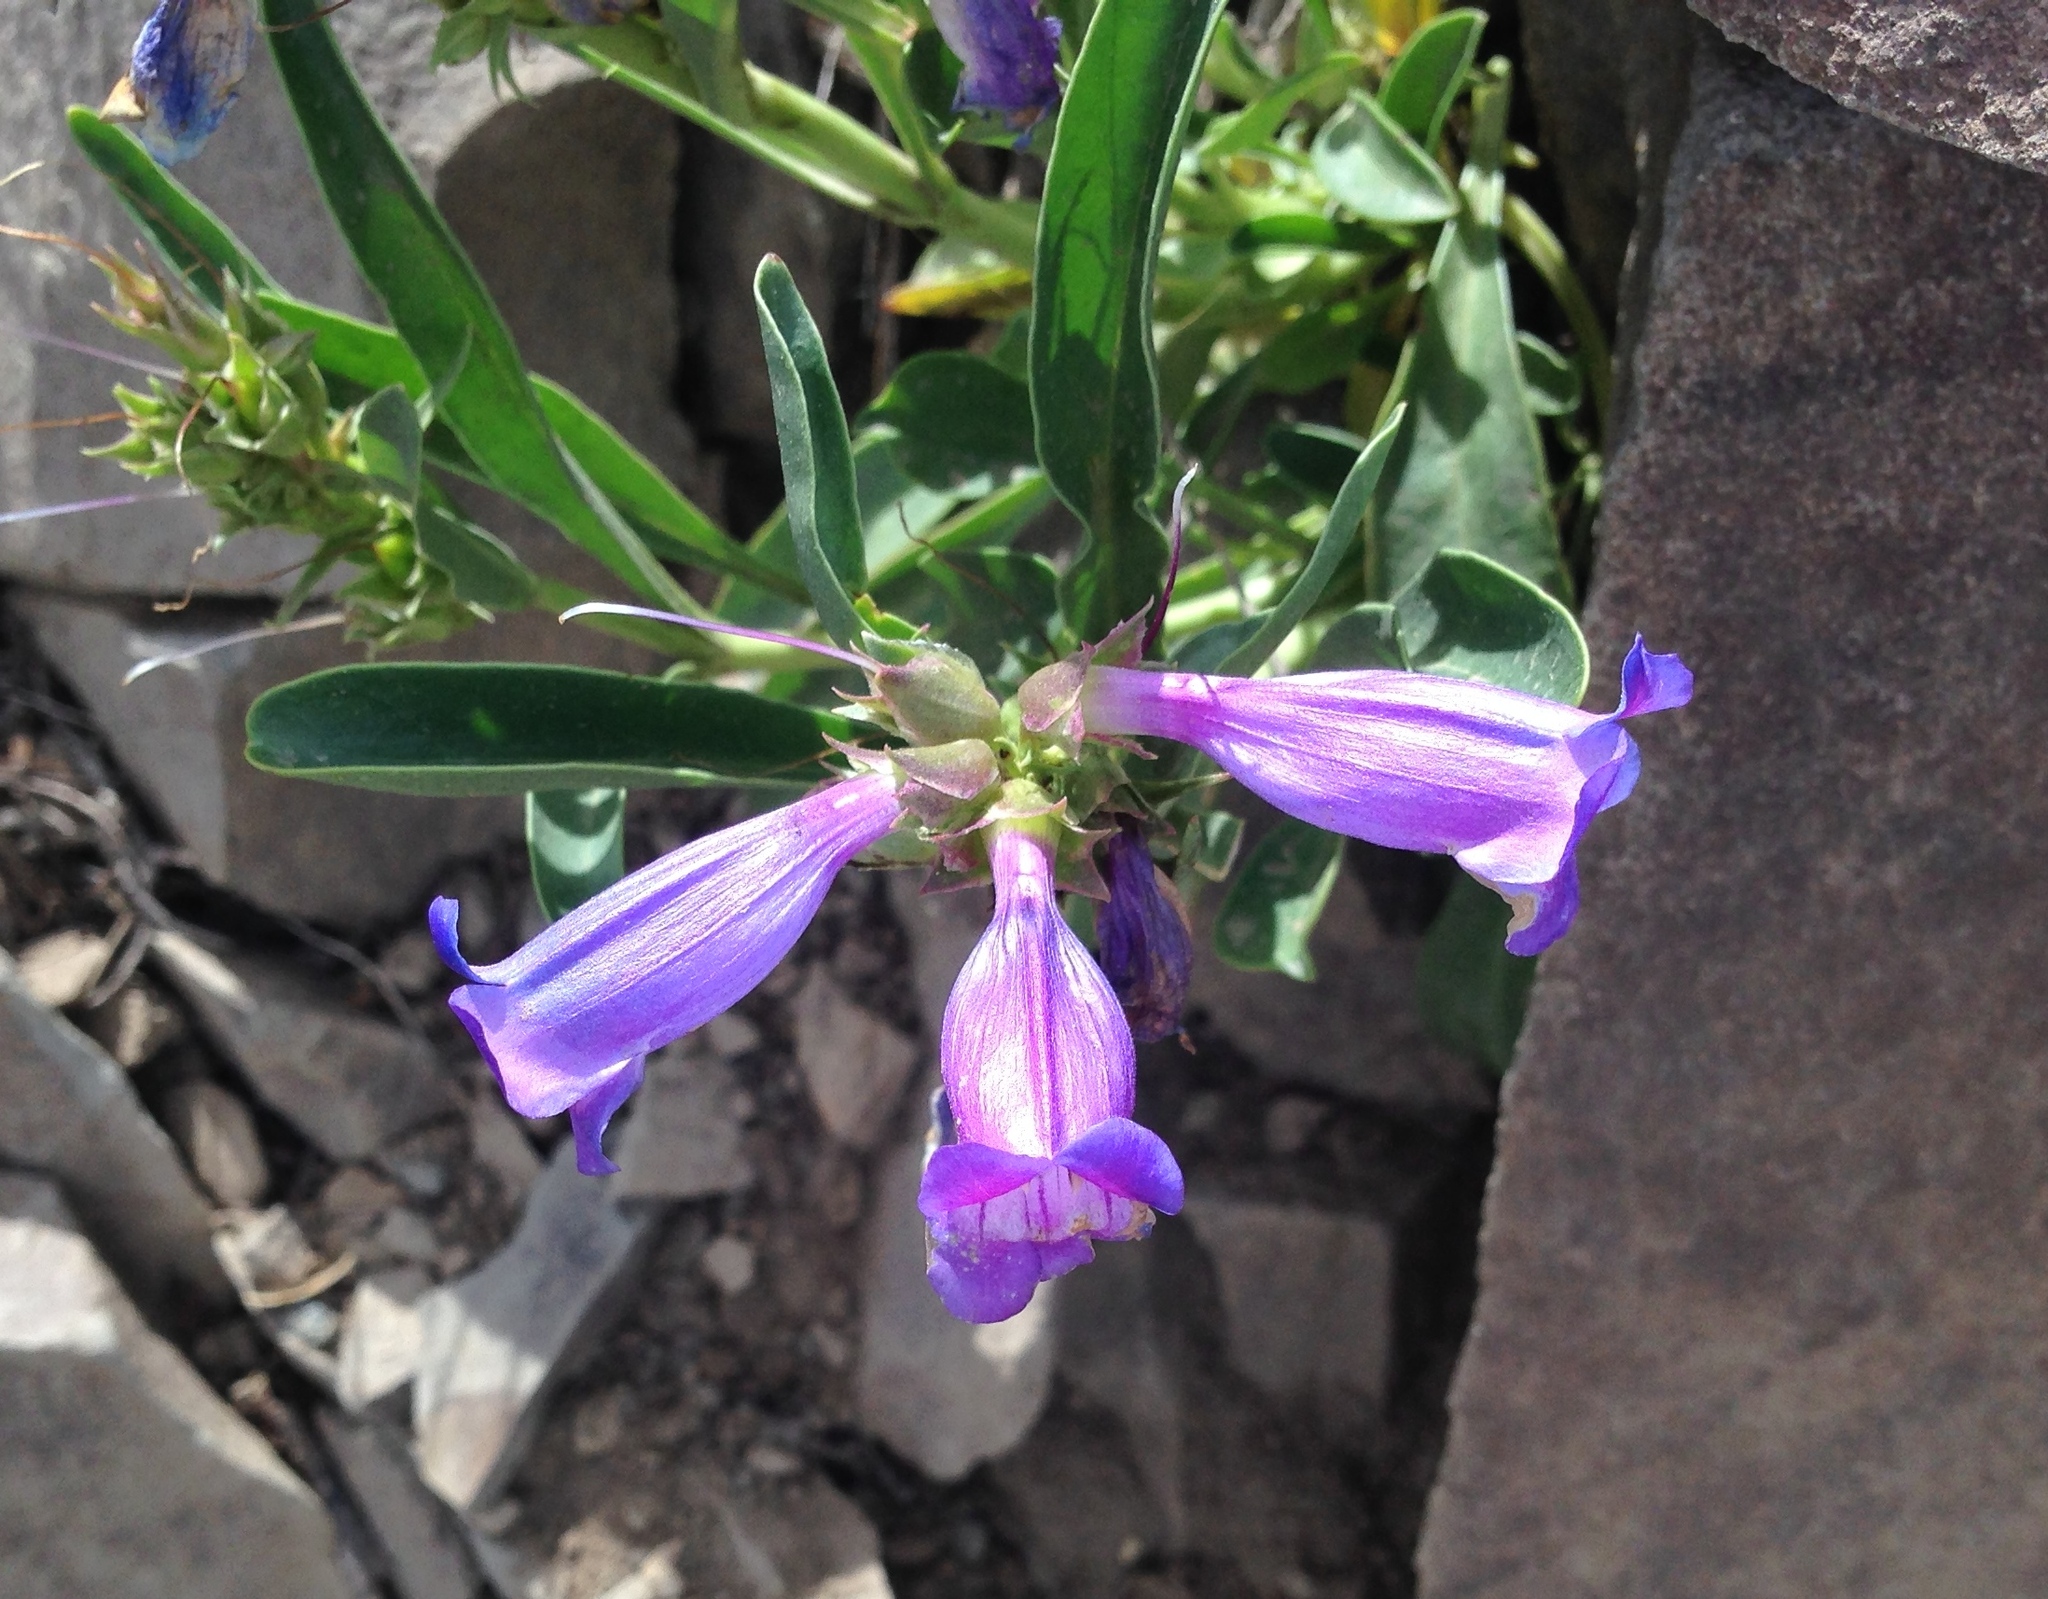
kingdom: Plantae
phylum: Tracheophyta
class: Magnoliopsida
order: Lamiales
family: Plantaginaceae
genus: Penstemon
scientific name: Penstemon speciosus
